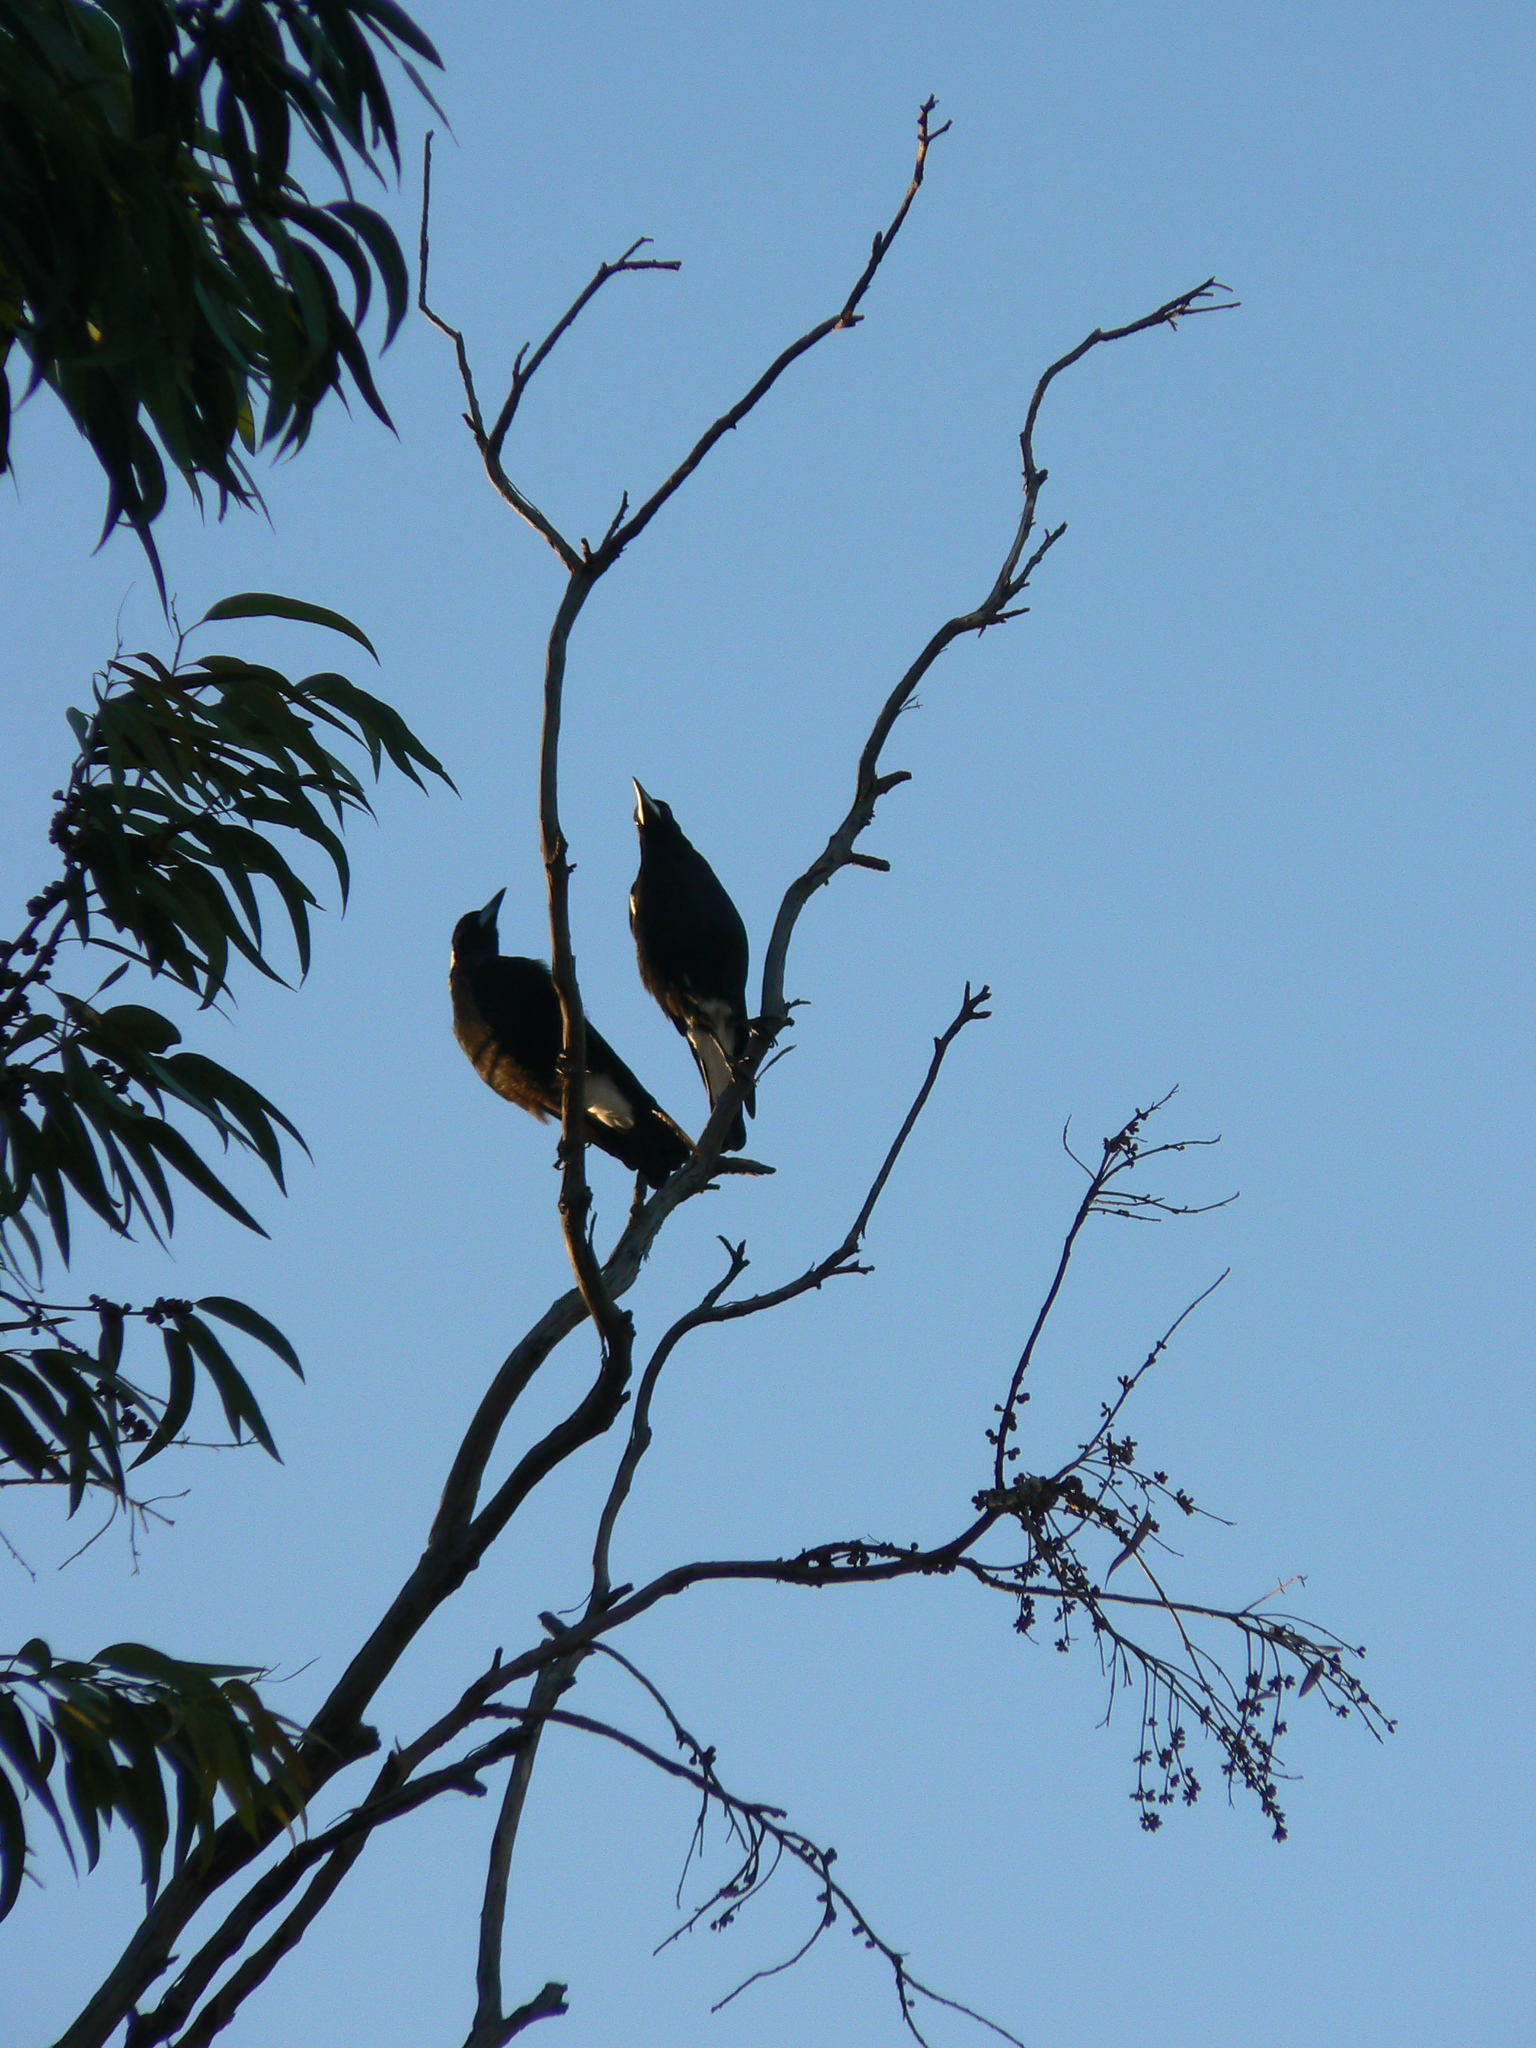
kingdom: Animalia
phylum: Chordata
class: Aves
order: Passeriformes
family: Cracticidae
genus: Gymnorhina
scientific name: Gymnorhina tibicen
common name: Australian magpie
